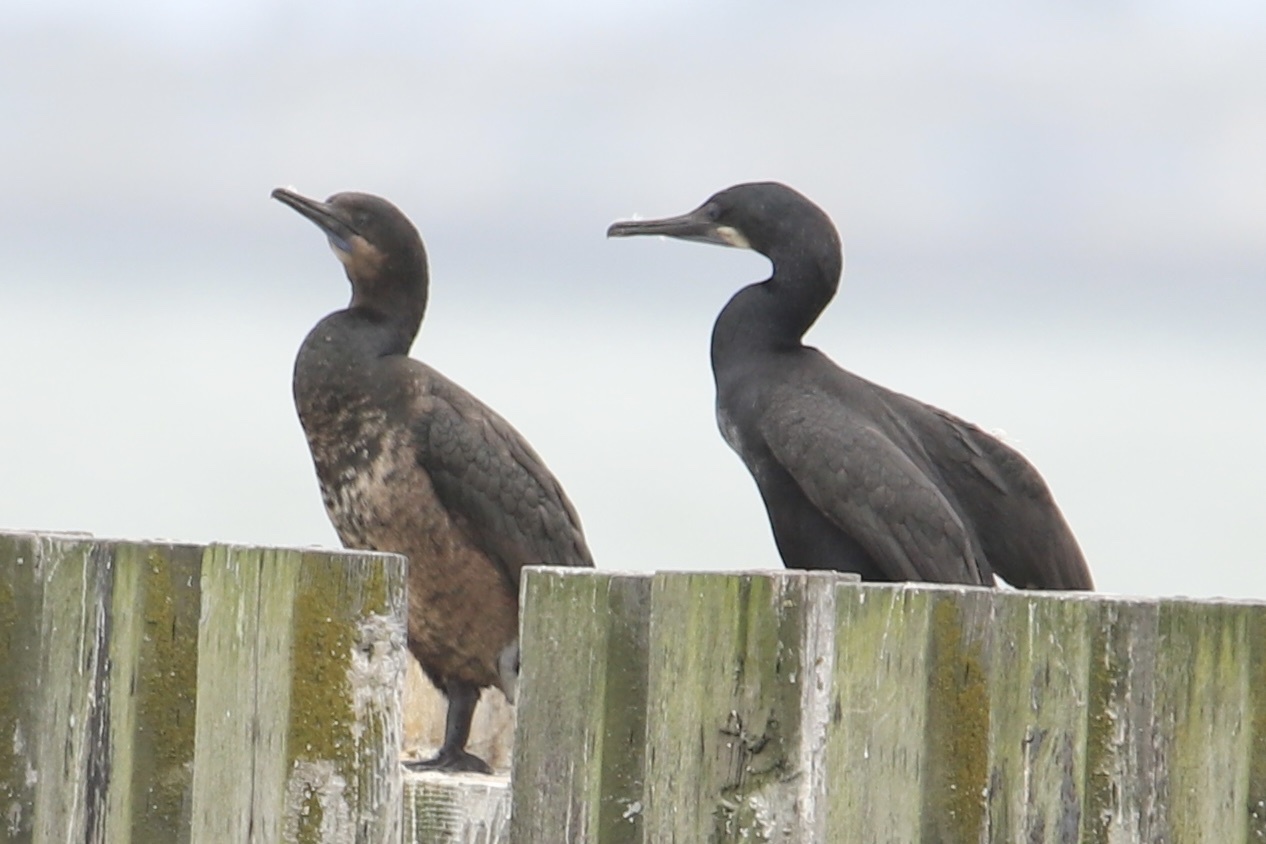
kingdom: Animalia
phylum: Chordata
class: Aves
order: Suliformes
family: Phalacrocoracidae
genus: Urile
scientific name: Urile penicillatus
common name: Brandt's cormorant
